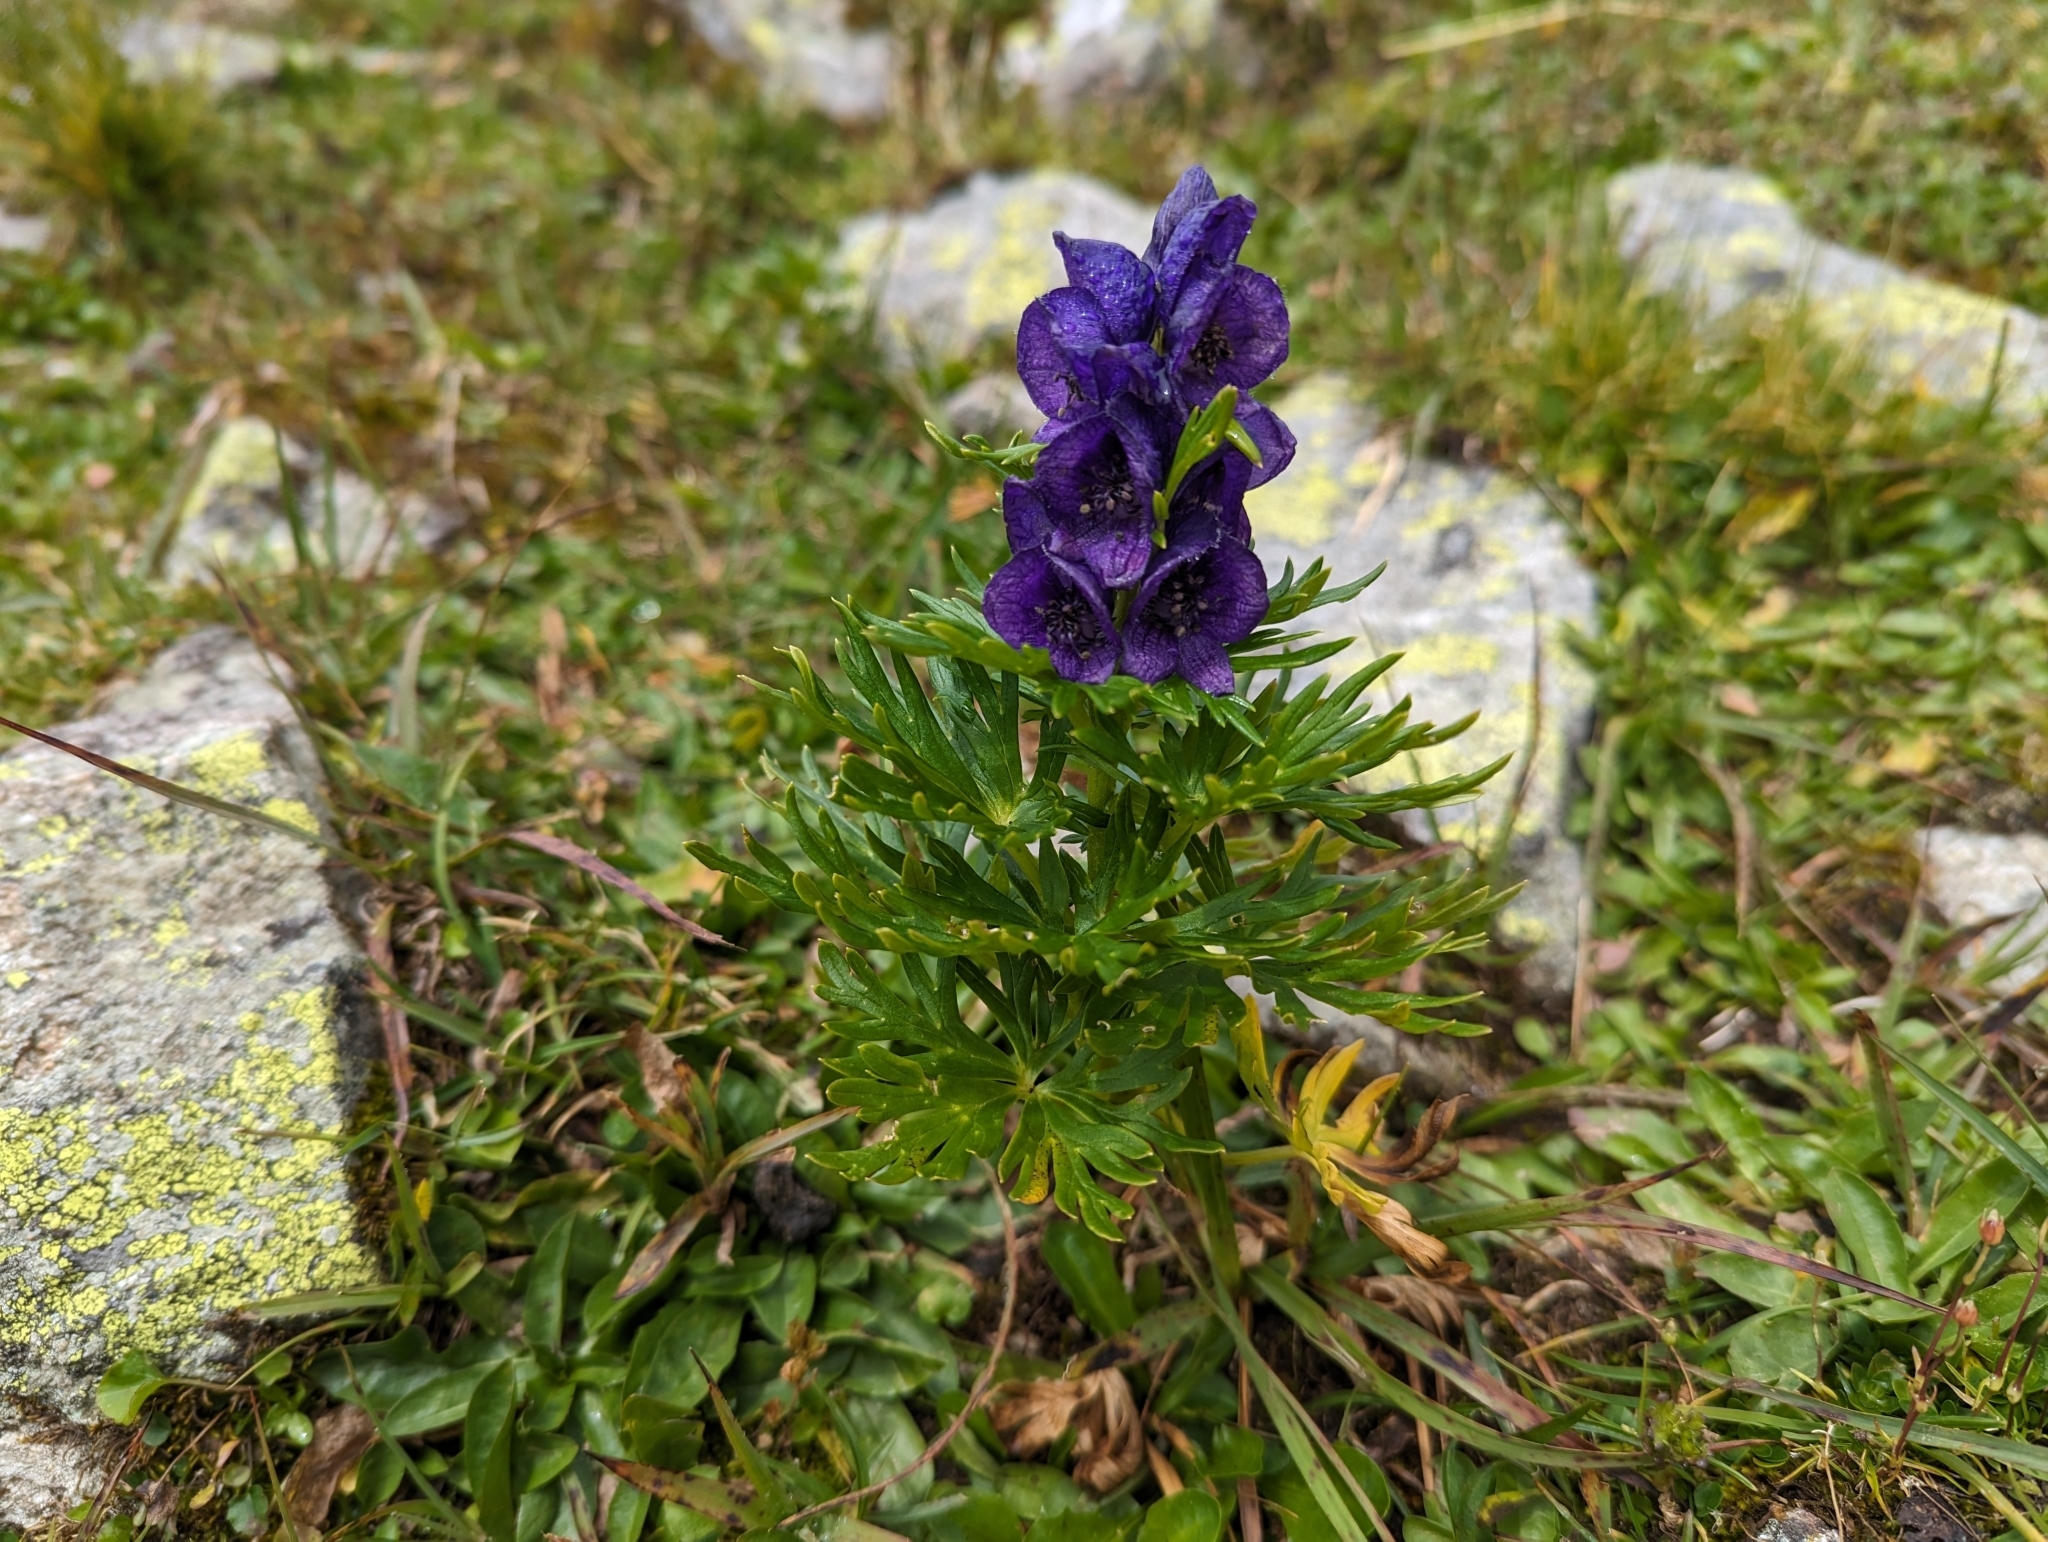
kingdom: Plantae
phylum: Tracheophyta
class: Magnoliopsida
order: Ranunculales
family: Ranunculaceae
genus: Aconitum
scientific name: Aconitum tauricum
